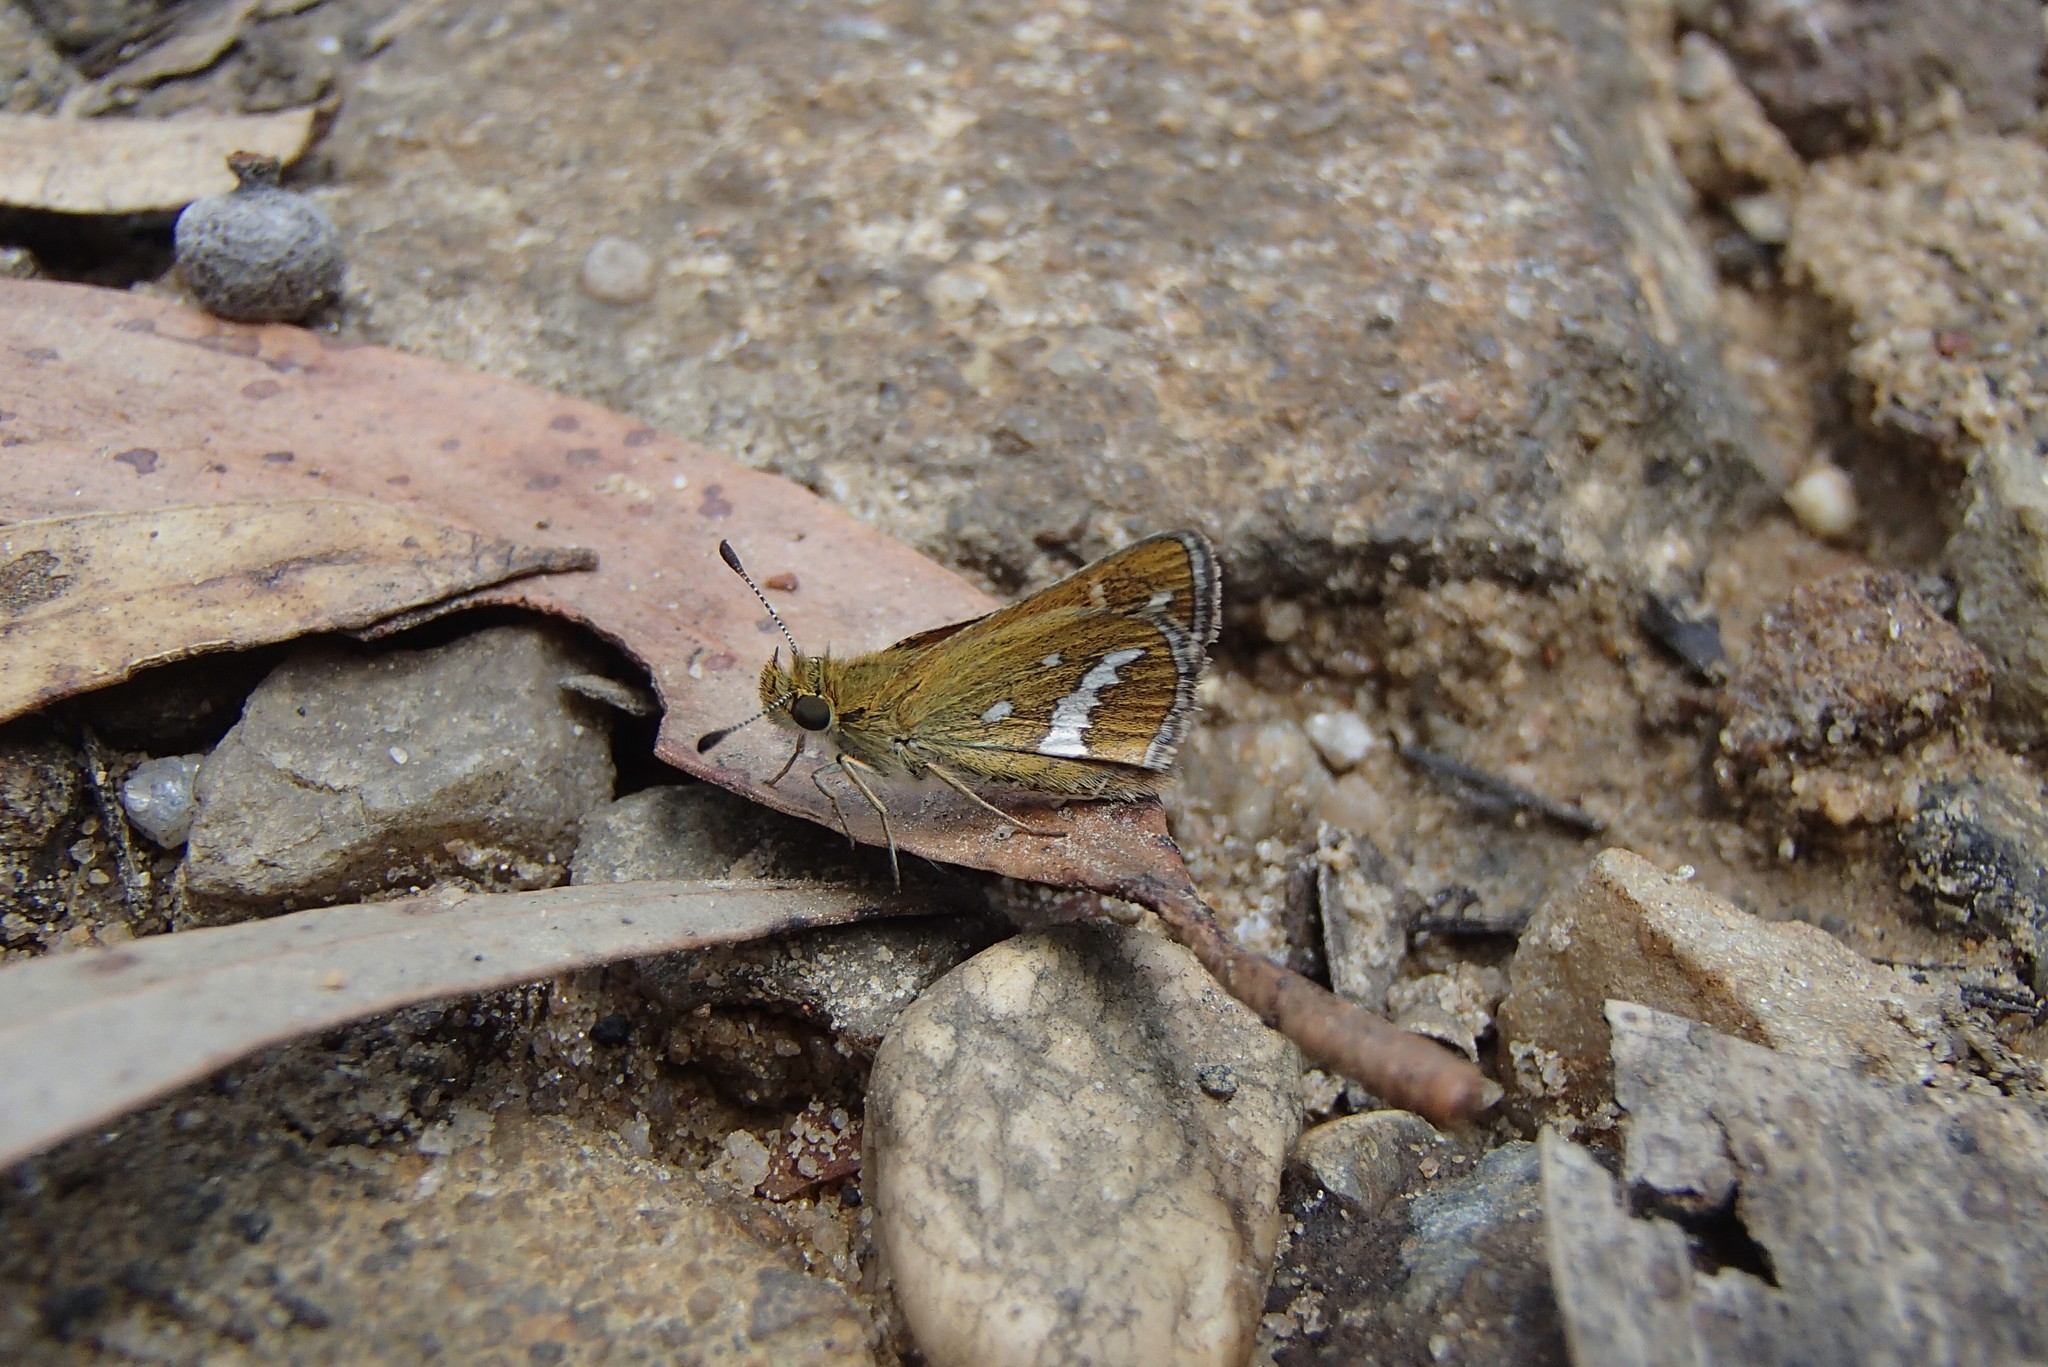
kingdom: Animalia
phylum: Arthropoda
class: Insecta
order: Lepidoptera
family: Hesperiidae
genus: Taractrocera
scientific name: Taractrocera papyria
